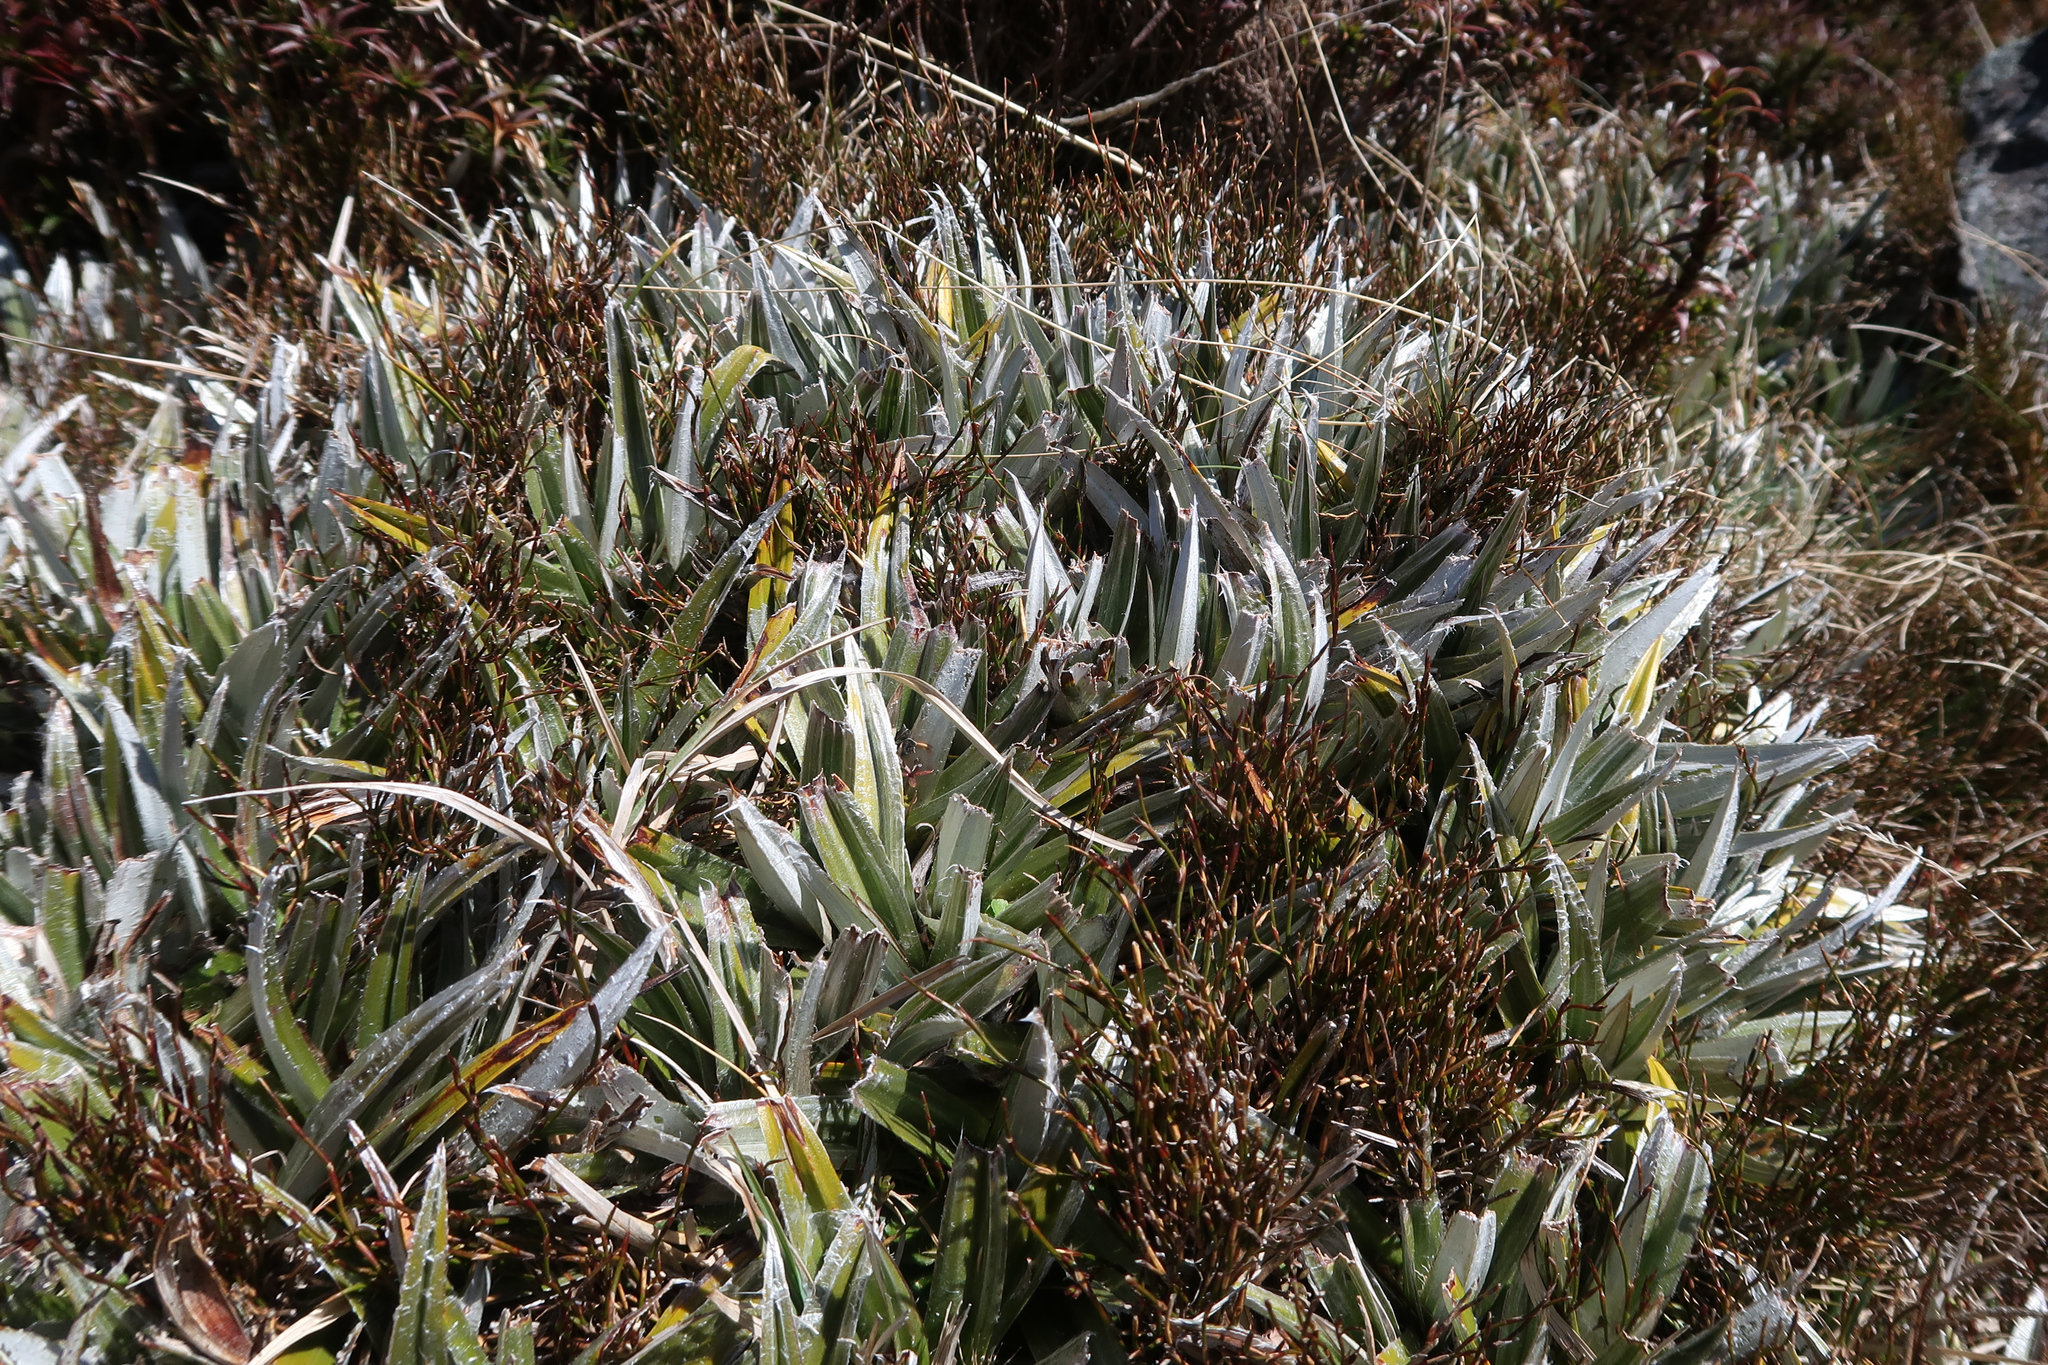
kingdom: Plantae
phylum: Tracheophyta
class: Liliopsida
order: Asparagales
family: Asteliaceae
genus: Astelia
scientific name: Astelia alpina
